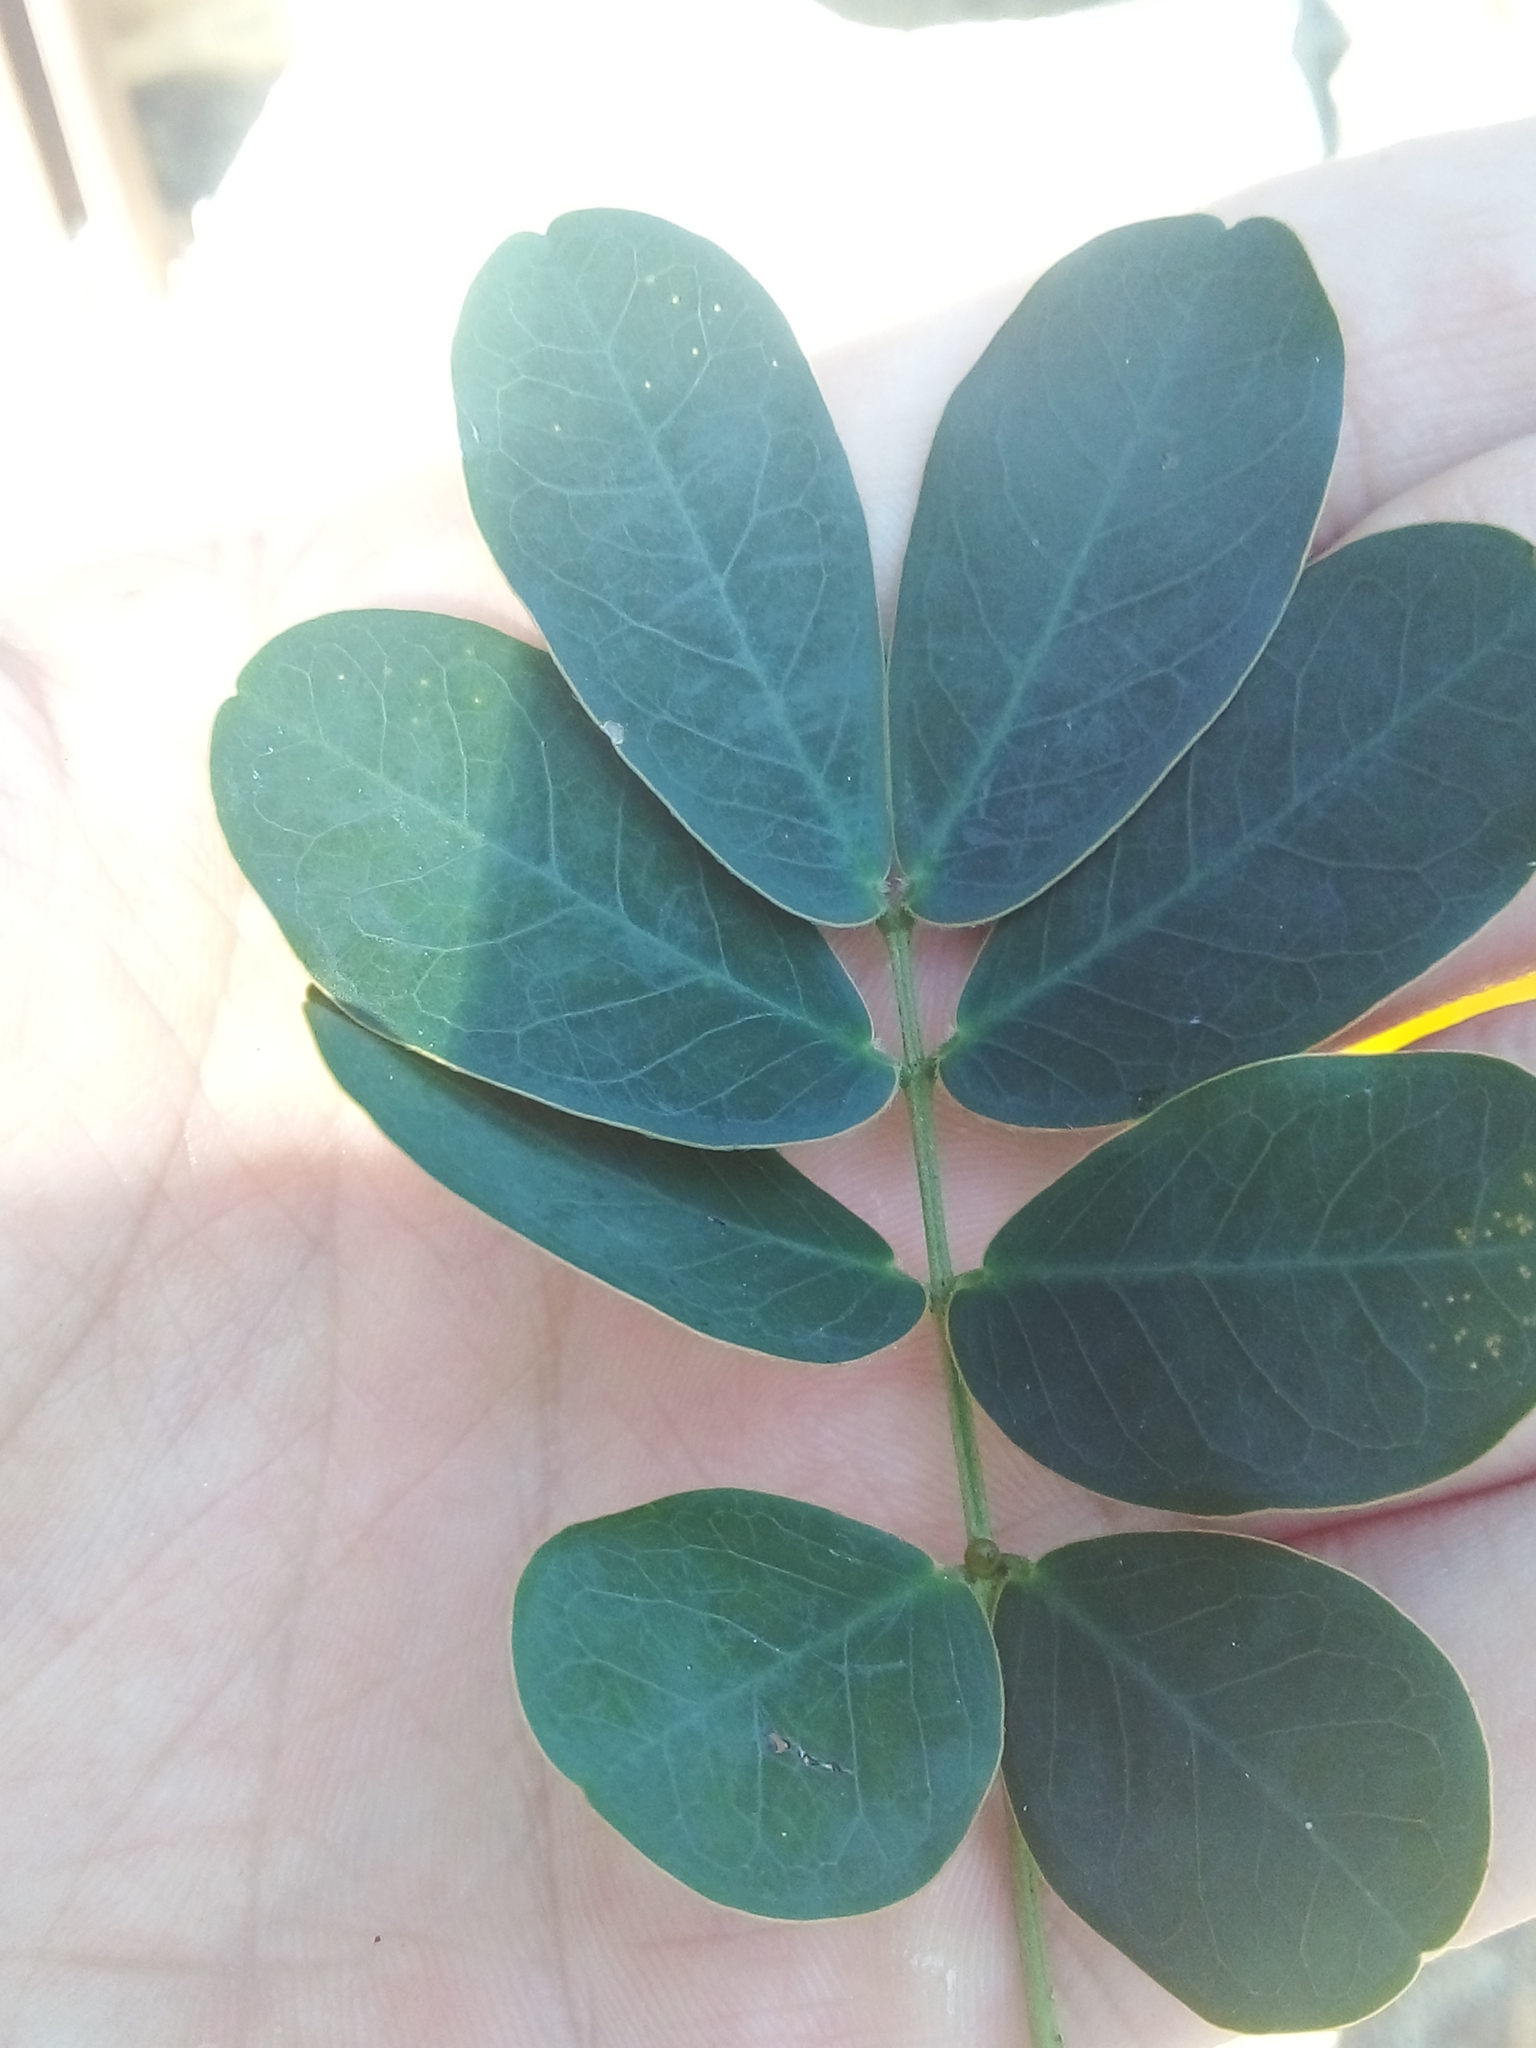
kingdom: Plantae
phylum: Tracheophyta
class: Magnoliopsida
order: Fabales
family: Fabaceae
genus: Senna
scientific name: Senna pendula
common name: Easter cassia
